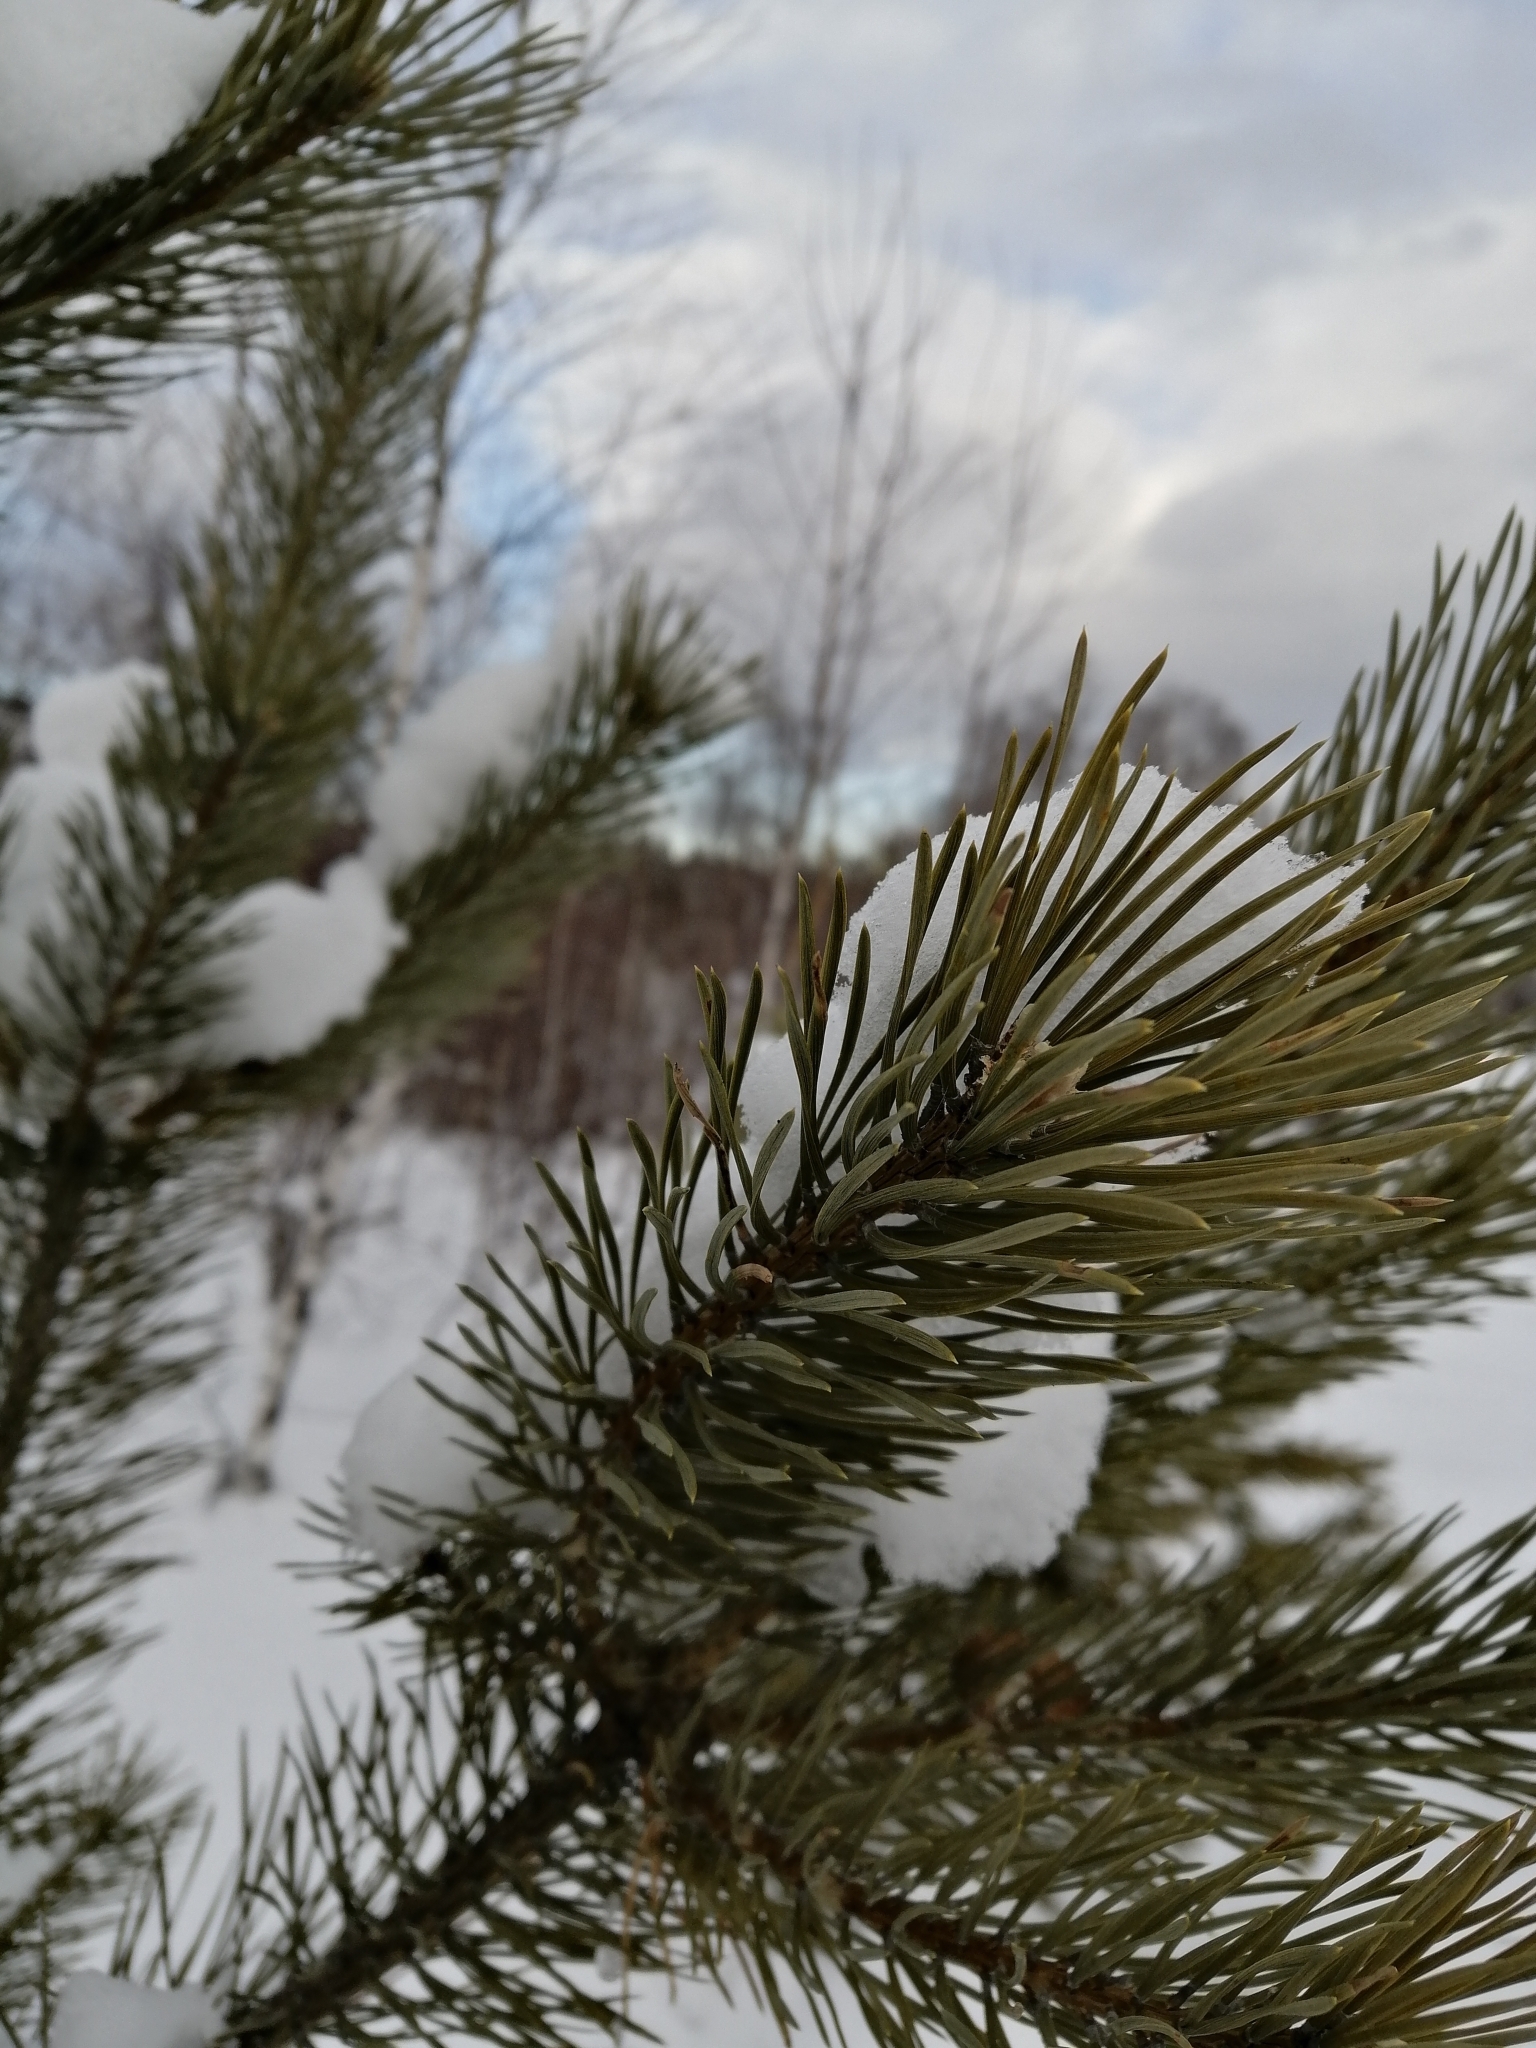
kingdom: Plantae
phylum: Tracheophyta
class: Pinopsida
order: Pinales
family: Pinaceae
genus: Pinus
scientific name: Pinus sylvestris
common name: Scots pine
